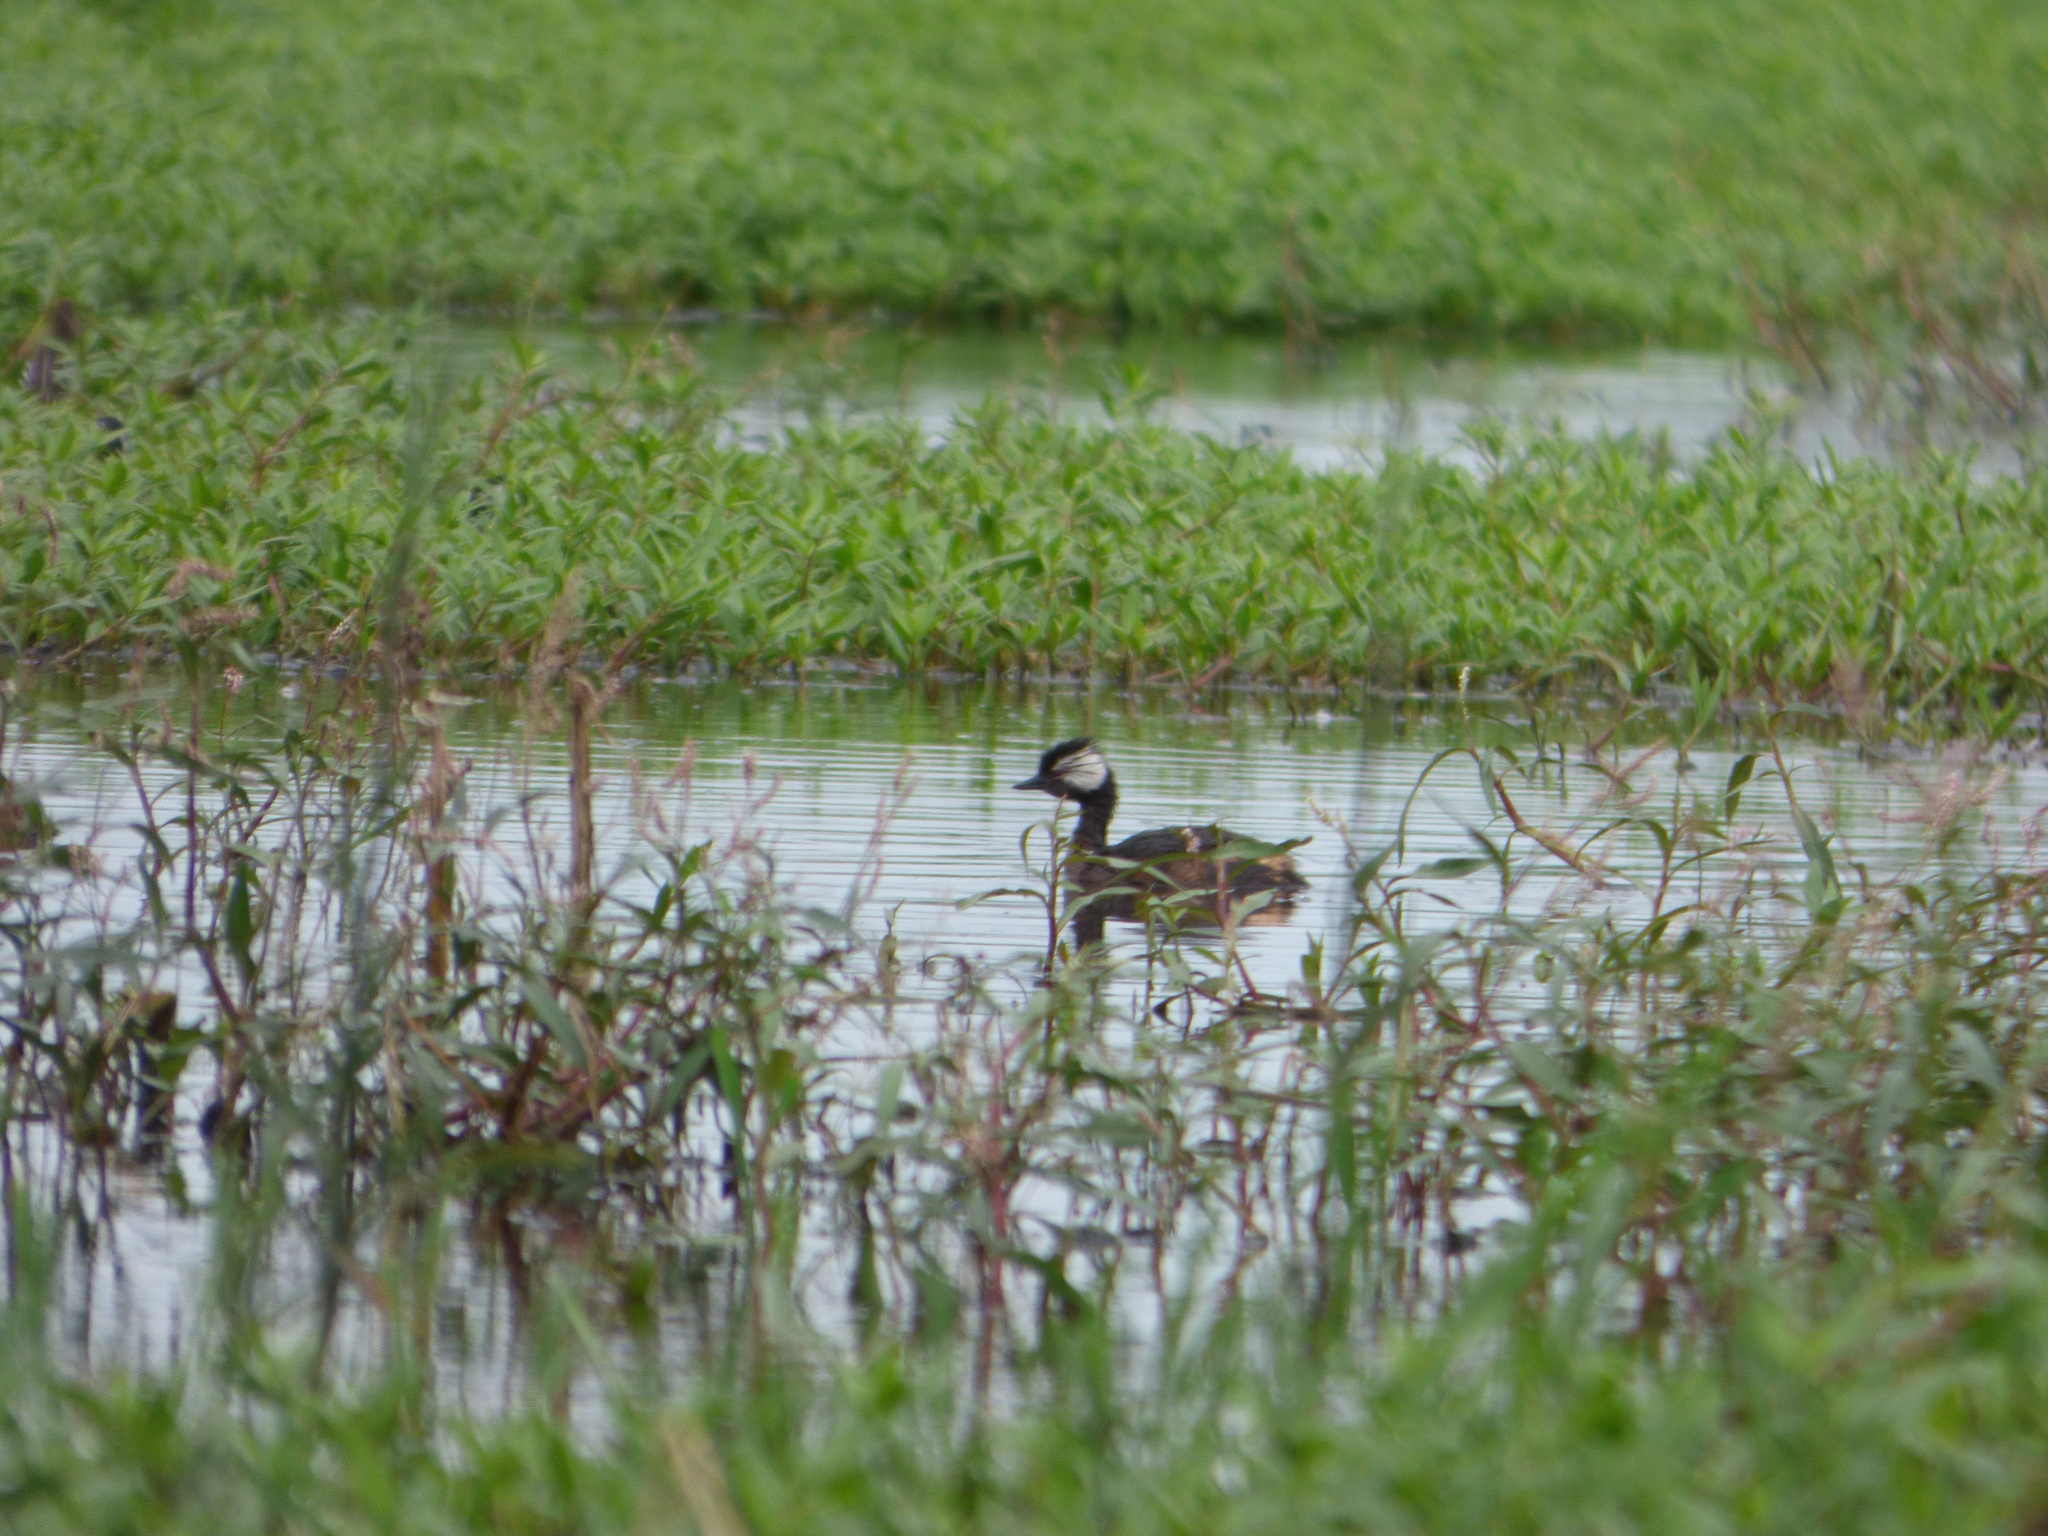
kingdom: Animalia
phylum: Chordata
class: Aves
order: Podicipediformes
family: Podicipedidae
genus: Rollandia
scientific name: Rollandia rolland
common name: White-tufted grebe
